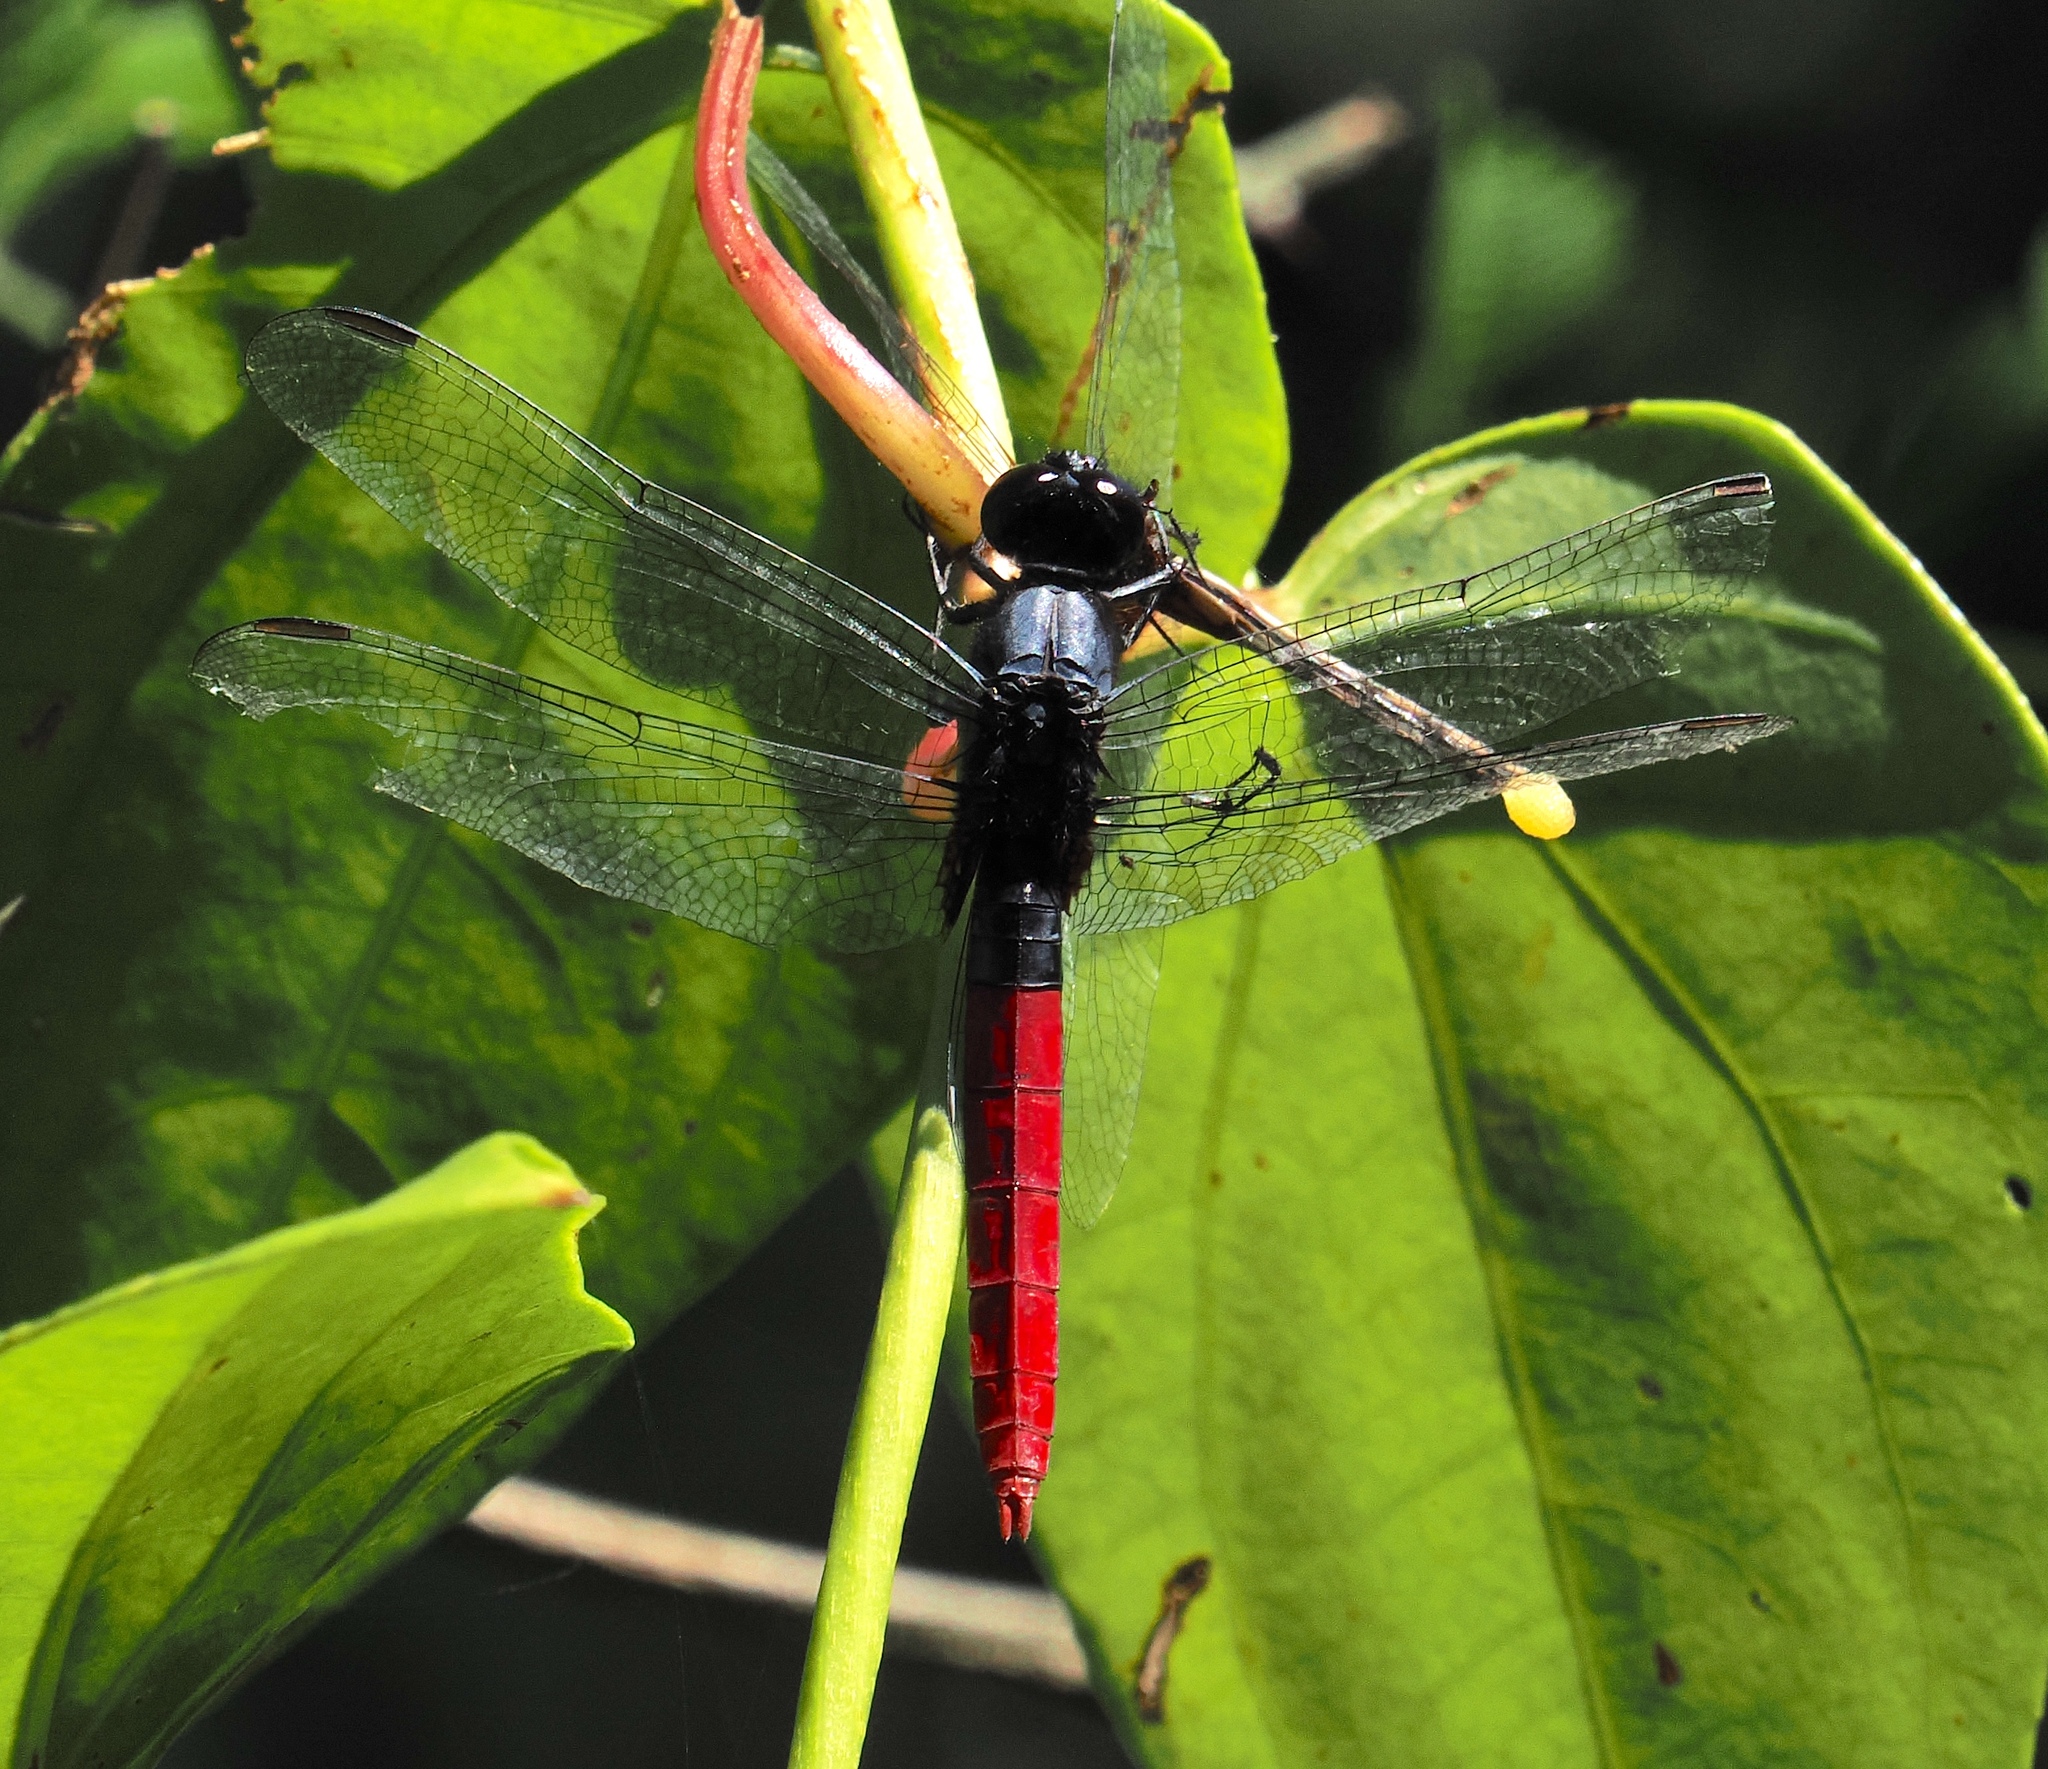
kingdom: Animalia
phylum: Arthropoda
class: Insecta
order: Odonata
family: Libellulidae
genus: Erythemis
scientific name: Erythemis peruviana
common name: Flame-tailed pondhawk
